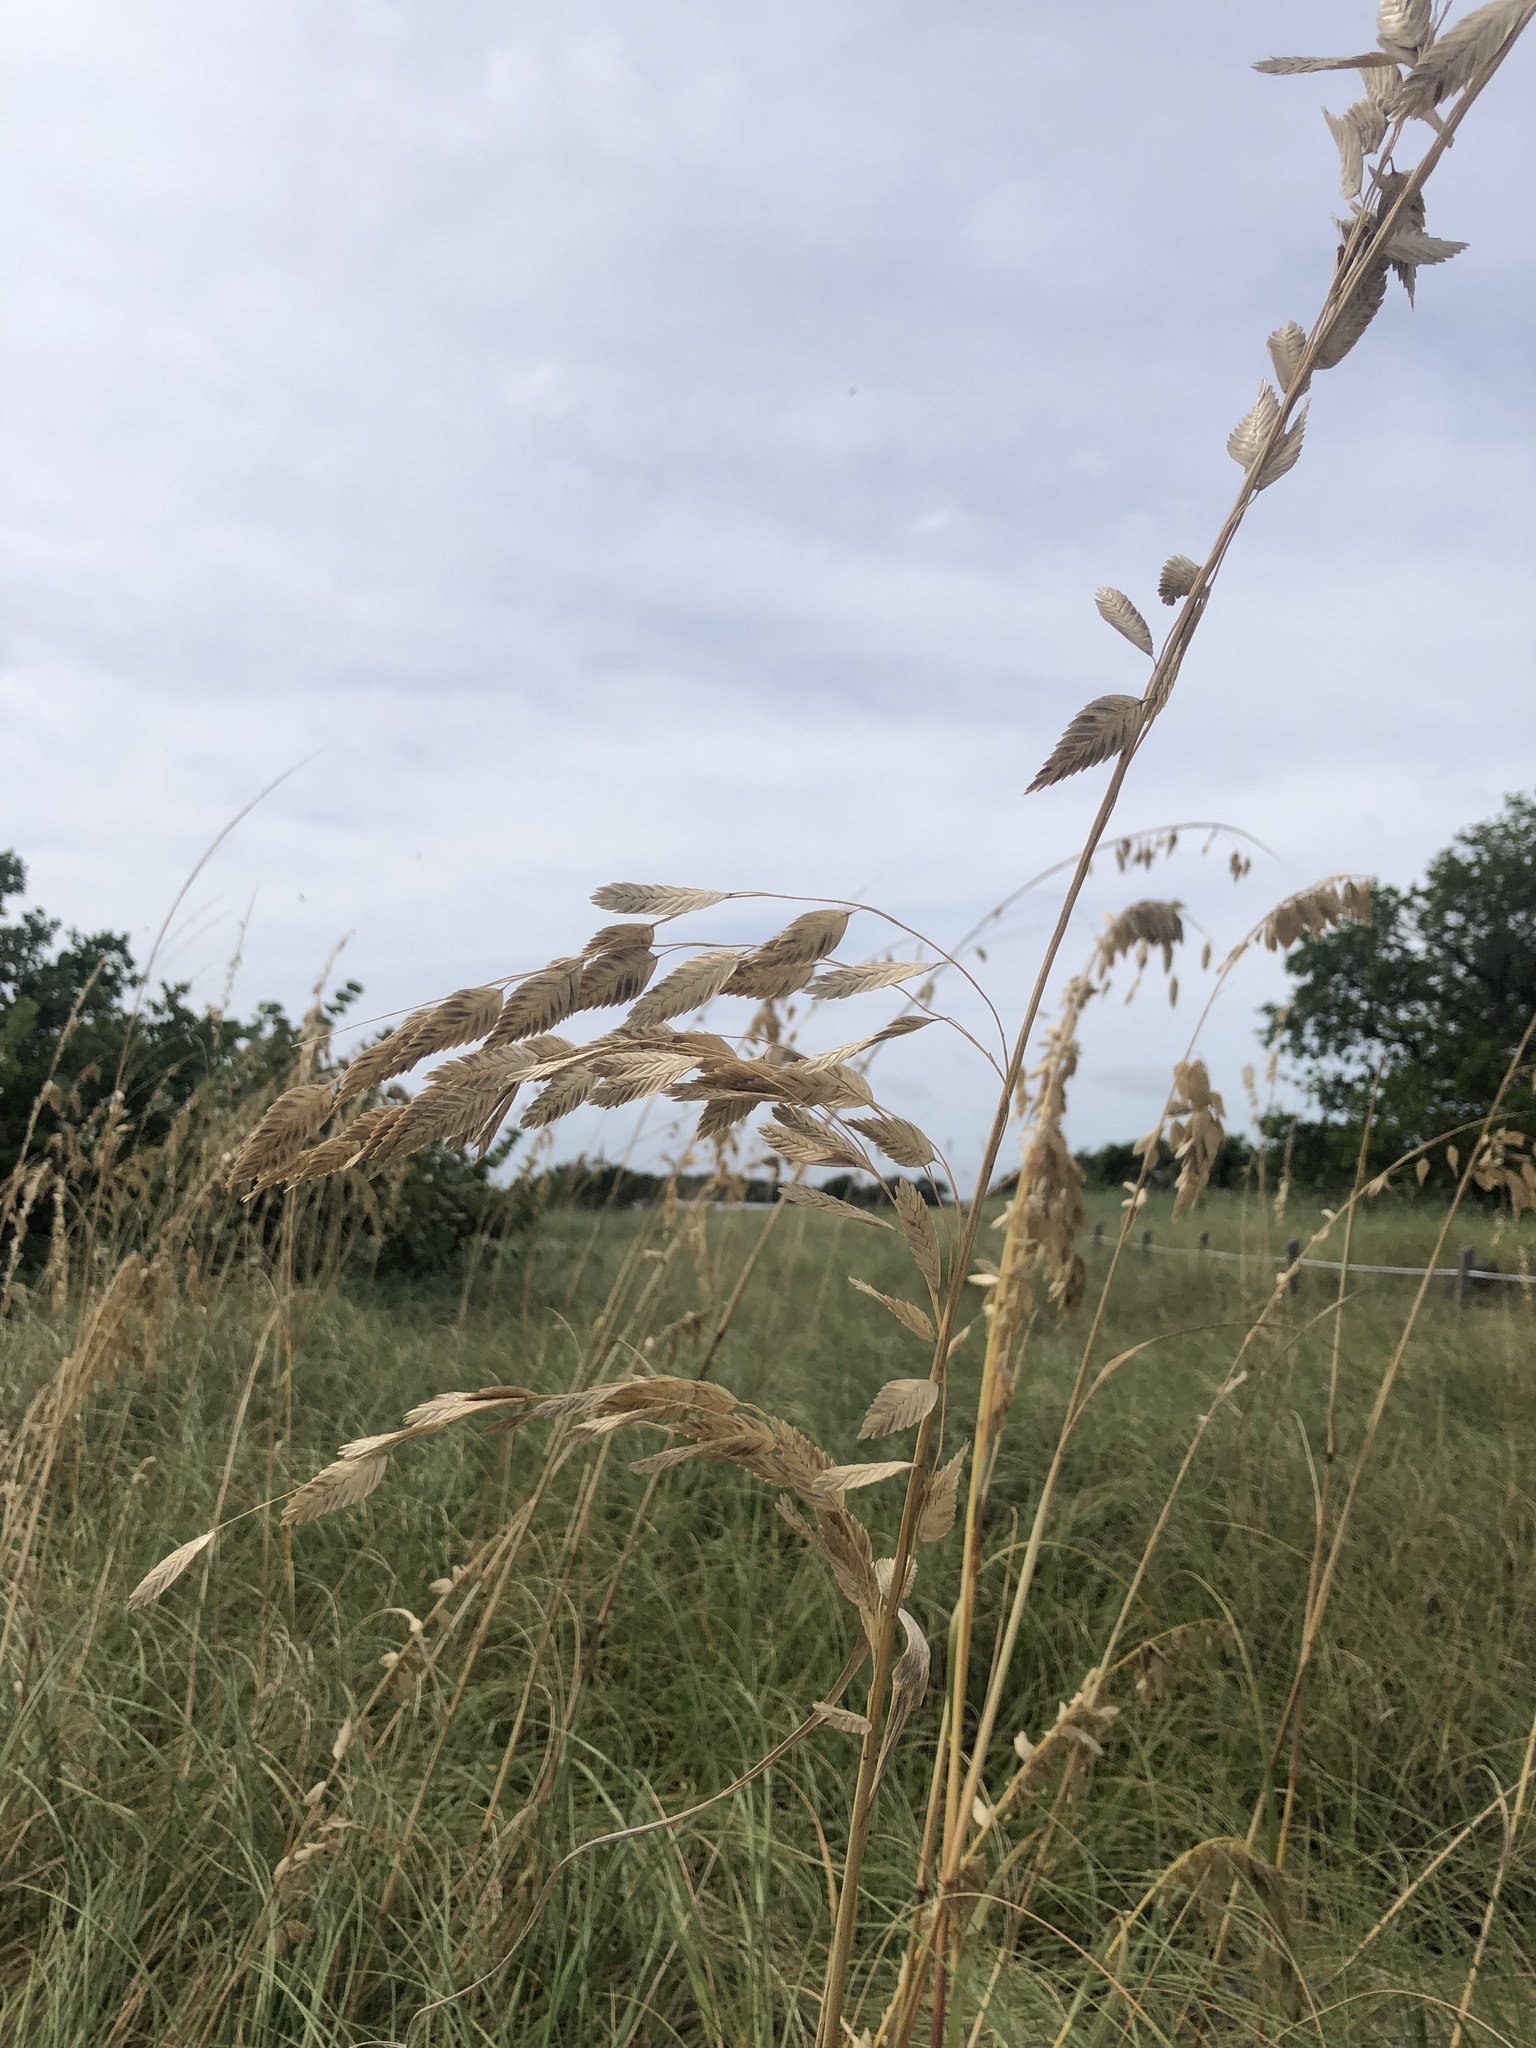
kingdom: Plantae
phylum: Tracheophyta
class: Liliopsida
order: Poales
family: Poaceae
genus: Uniola
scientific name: Uniola paniculata
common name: Seaside-oats
